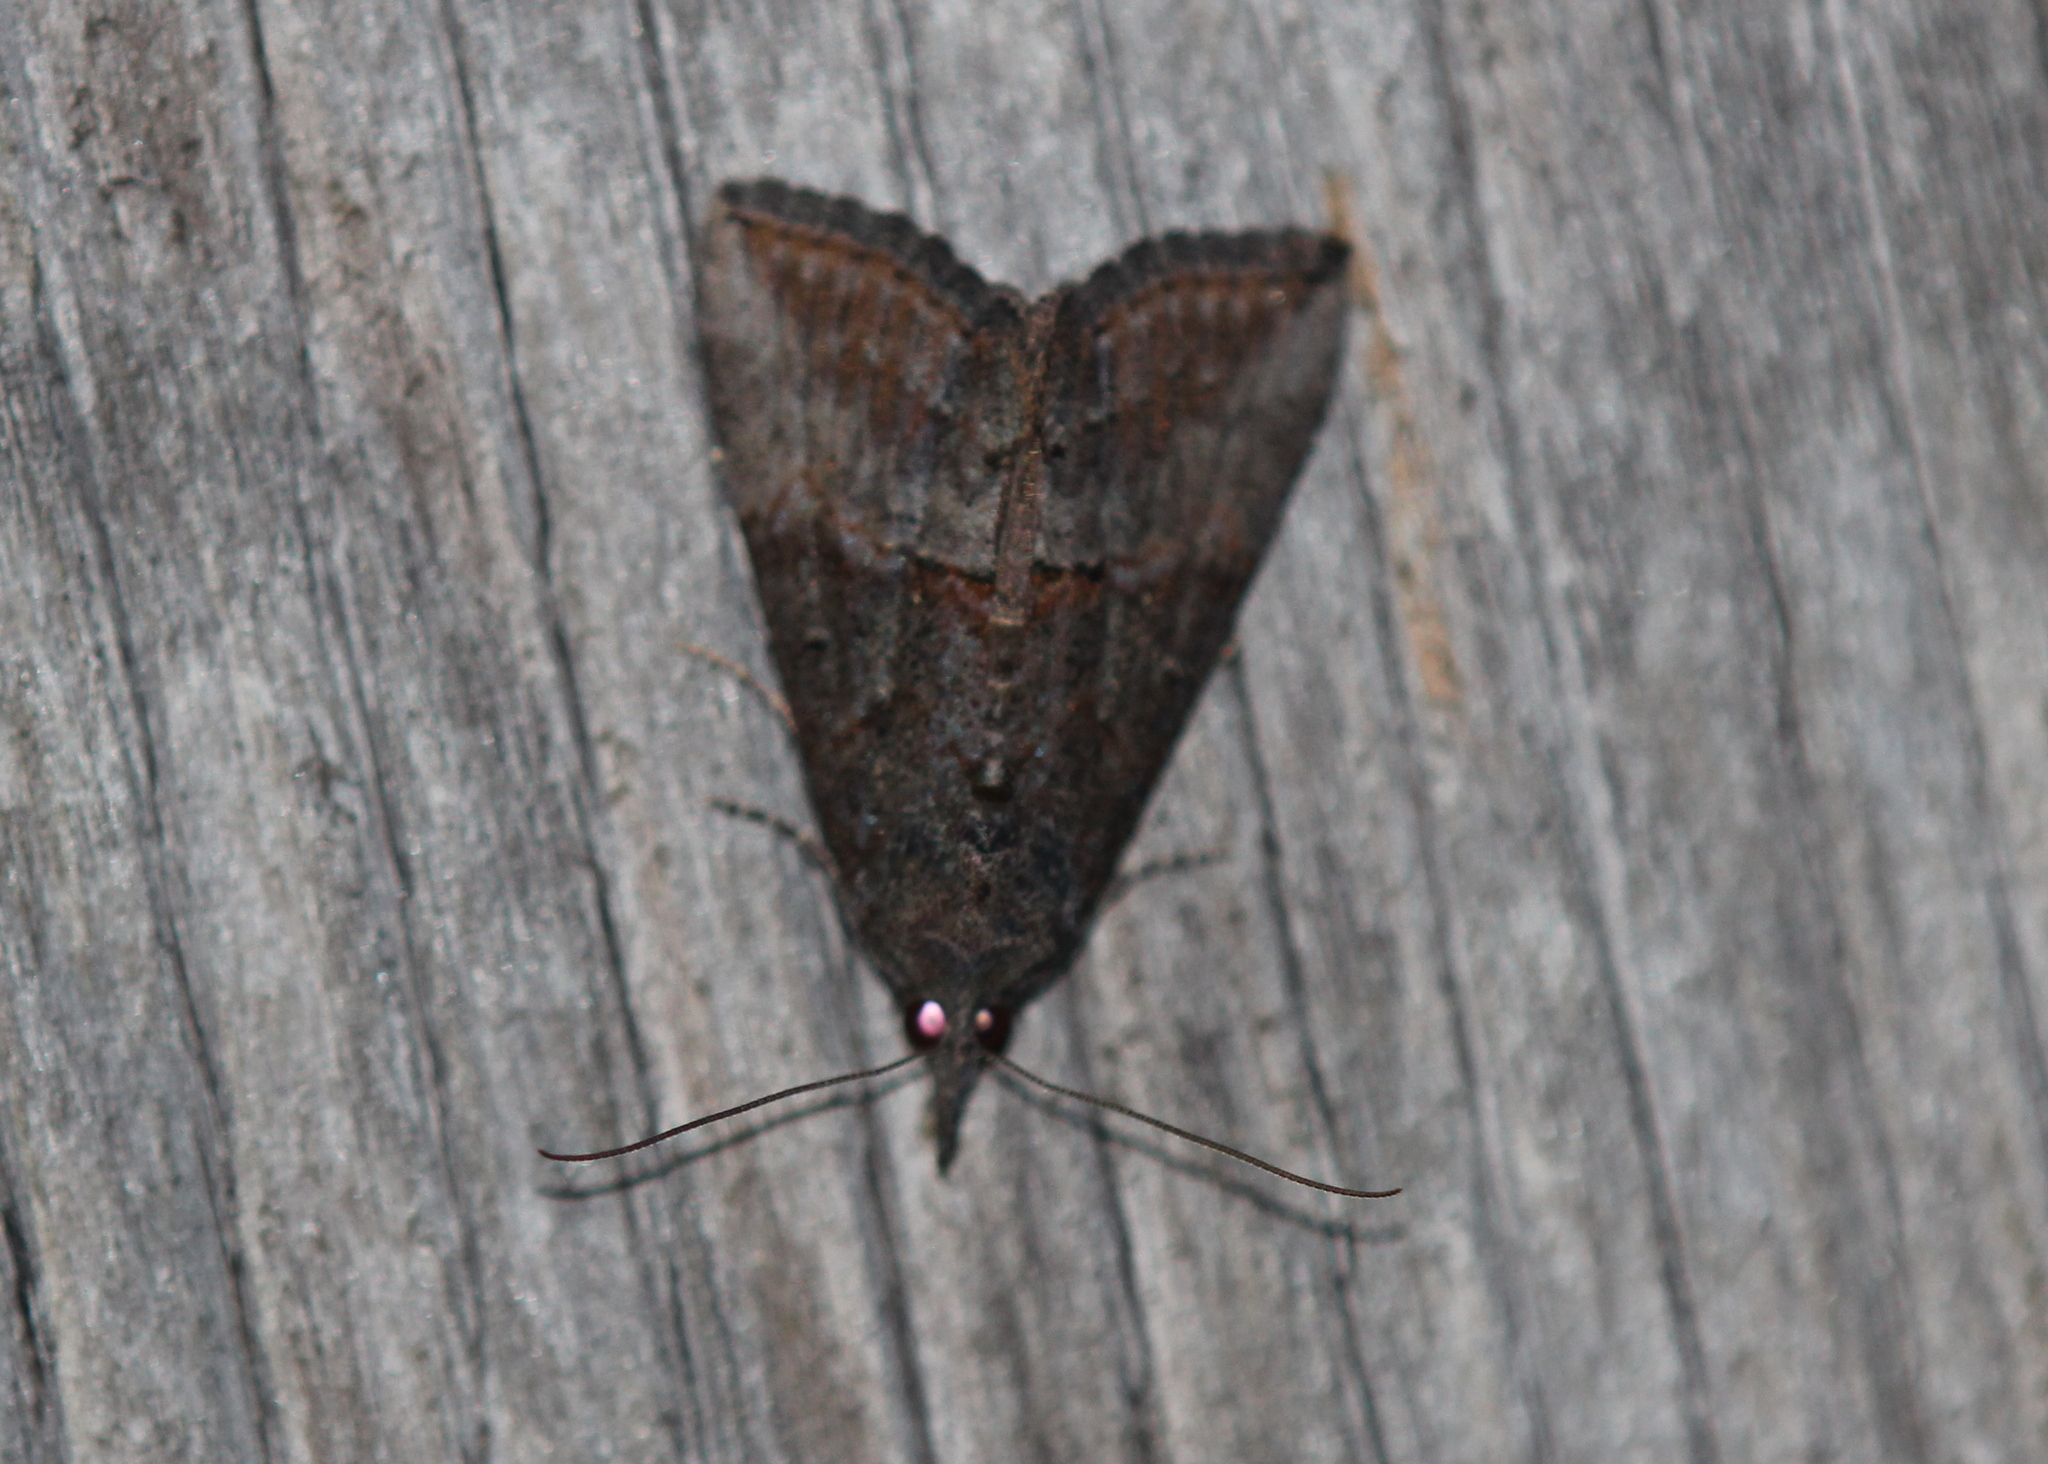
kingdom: Animalia
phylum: Arthropoda
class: Insecta
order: Lepidoptera
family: Erebidae
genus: Hypena
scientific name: Hypena scabra
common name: Green cloverworm
